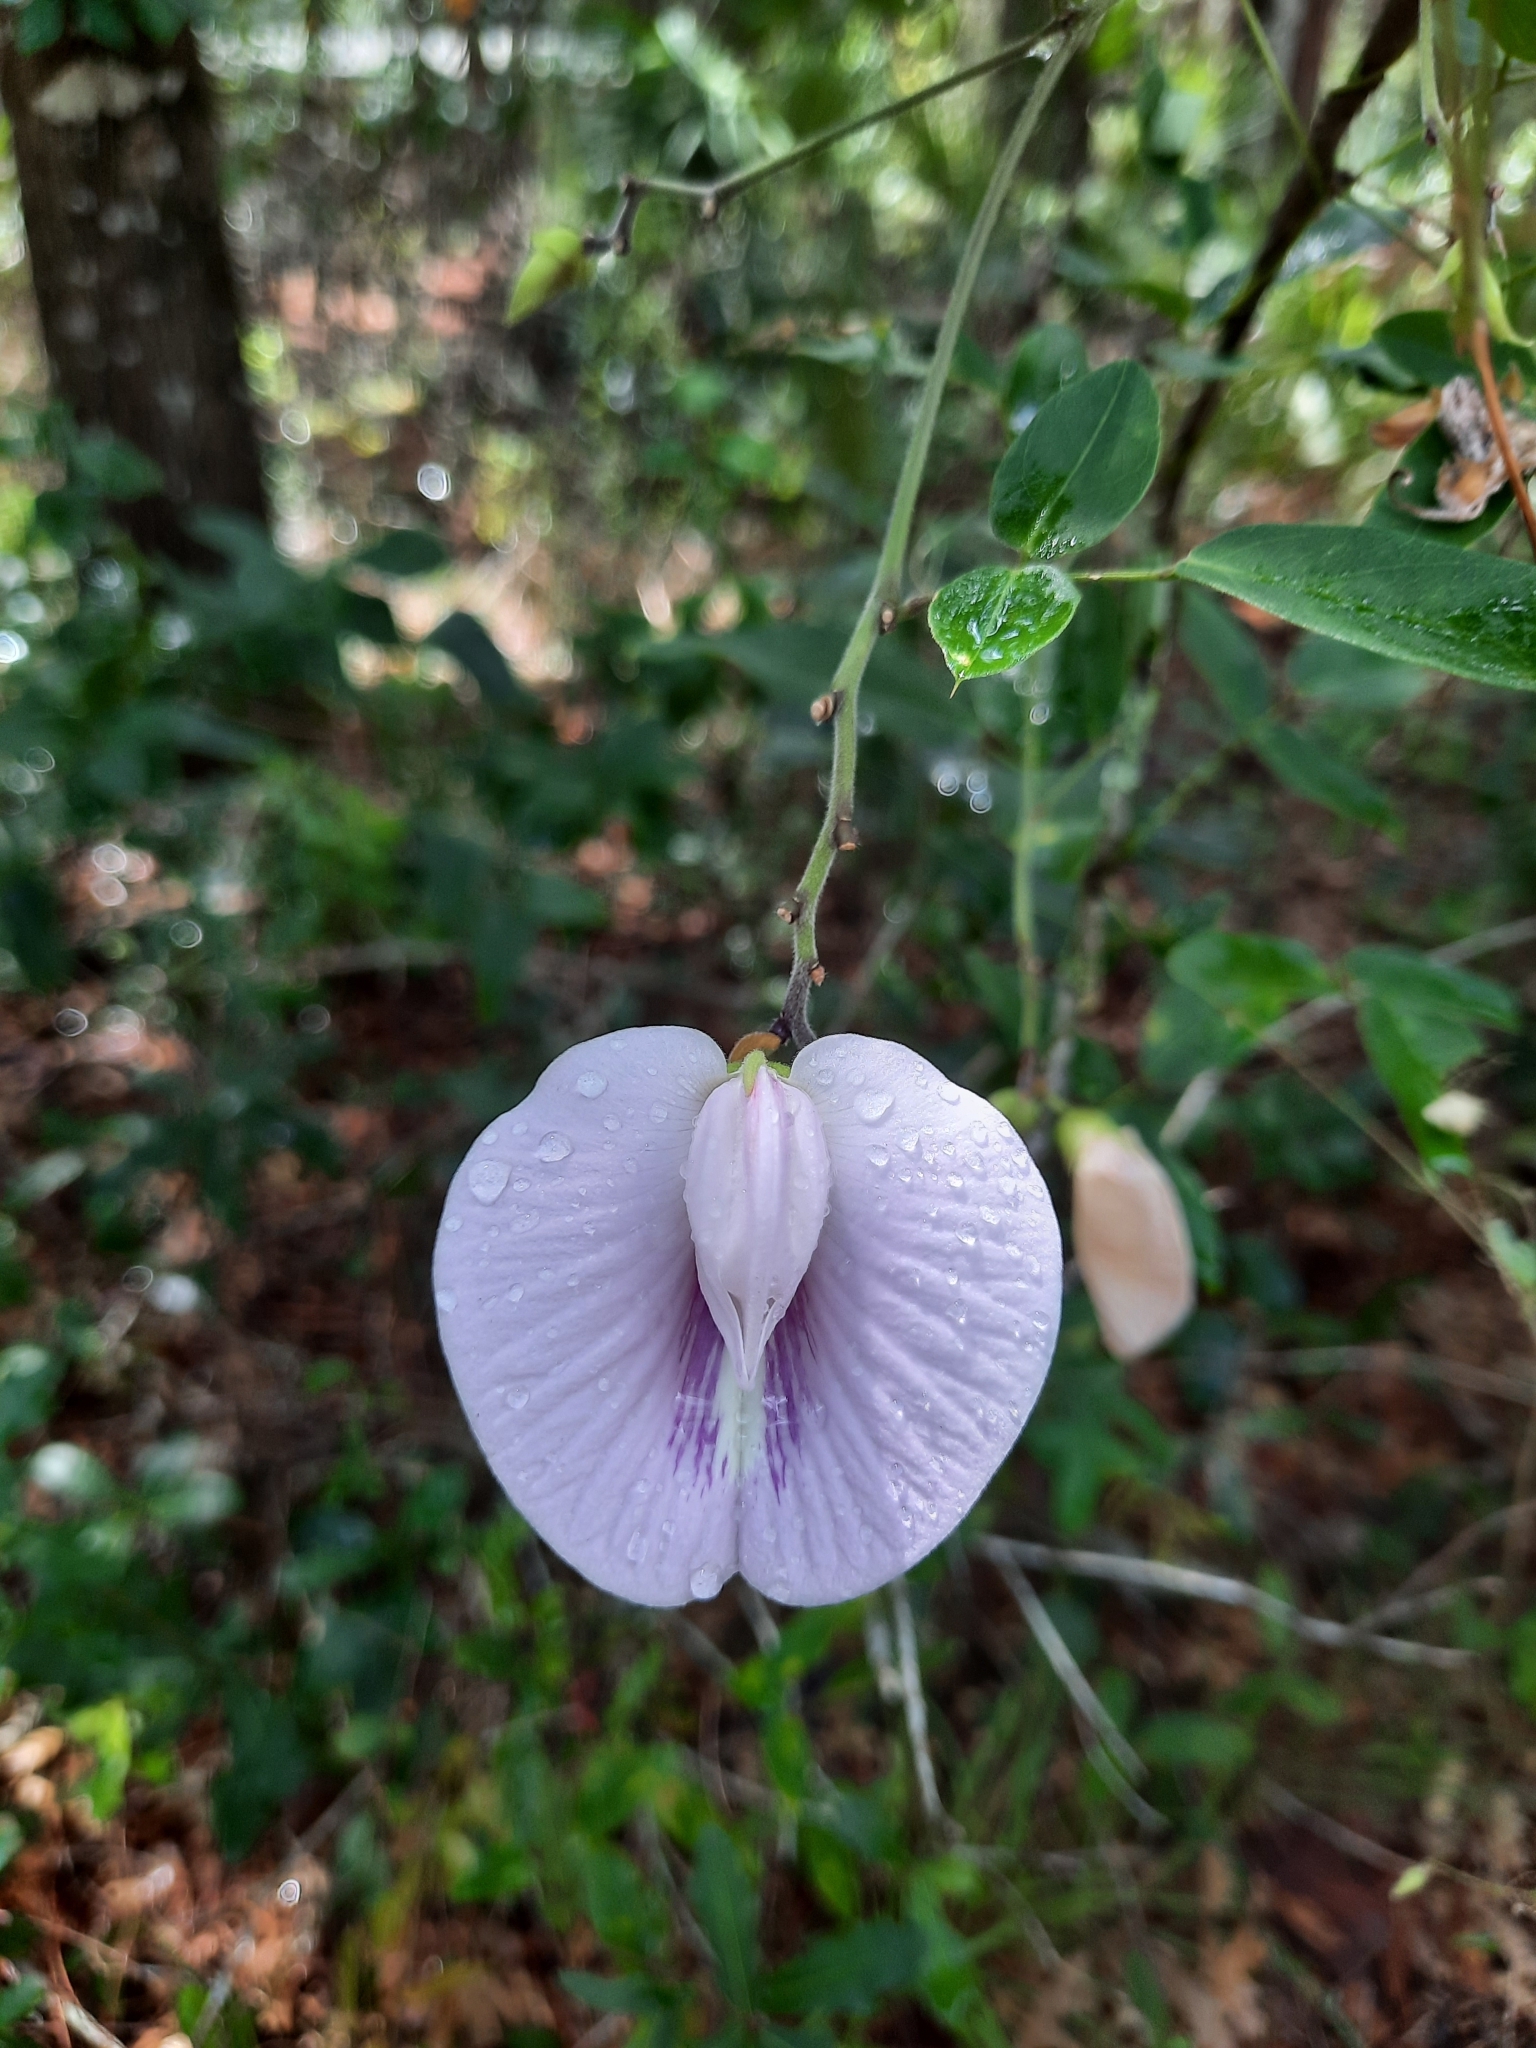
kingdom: Plantae
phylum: Tracheophyta
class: Magnoliopsida
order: Fabales
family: Fabaceae
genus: Centrosema
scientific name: Centrosema arenicola
